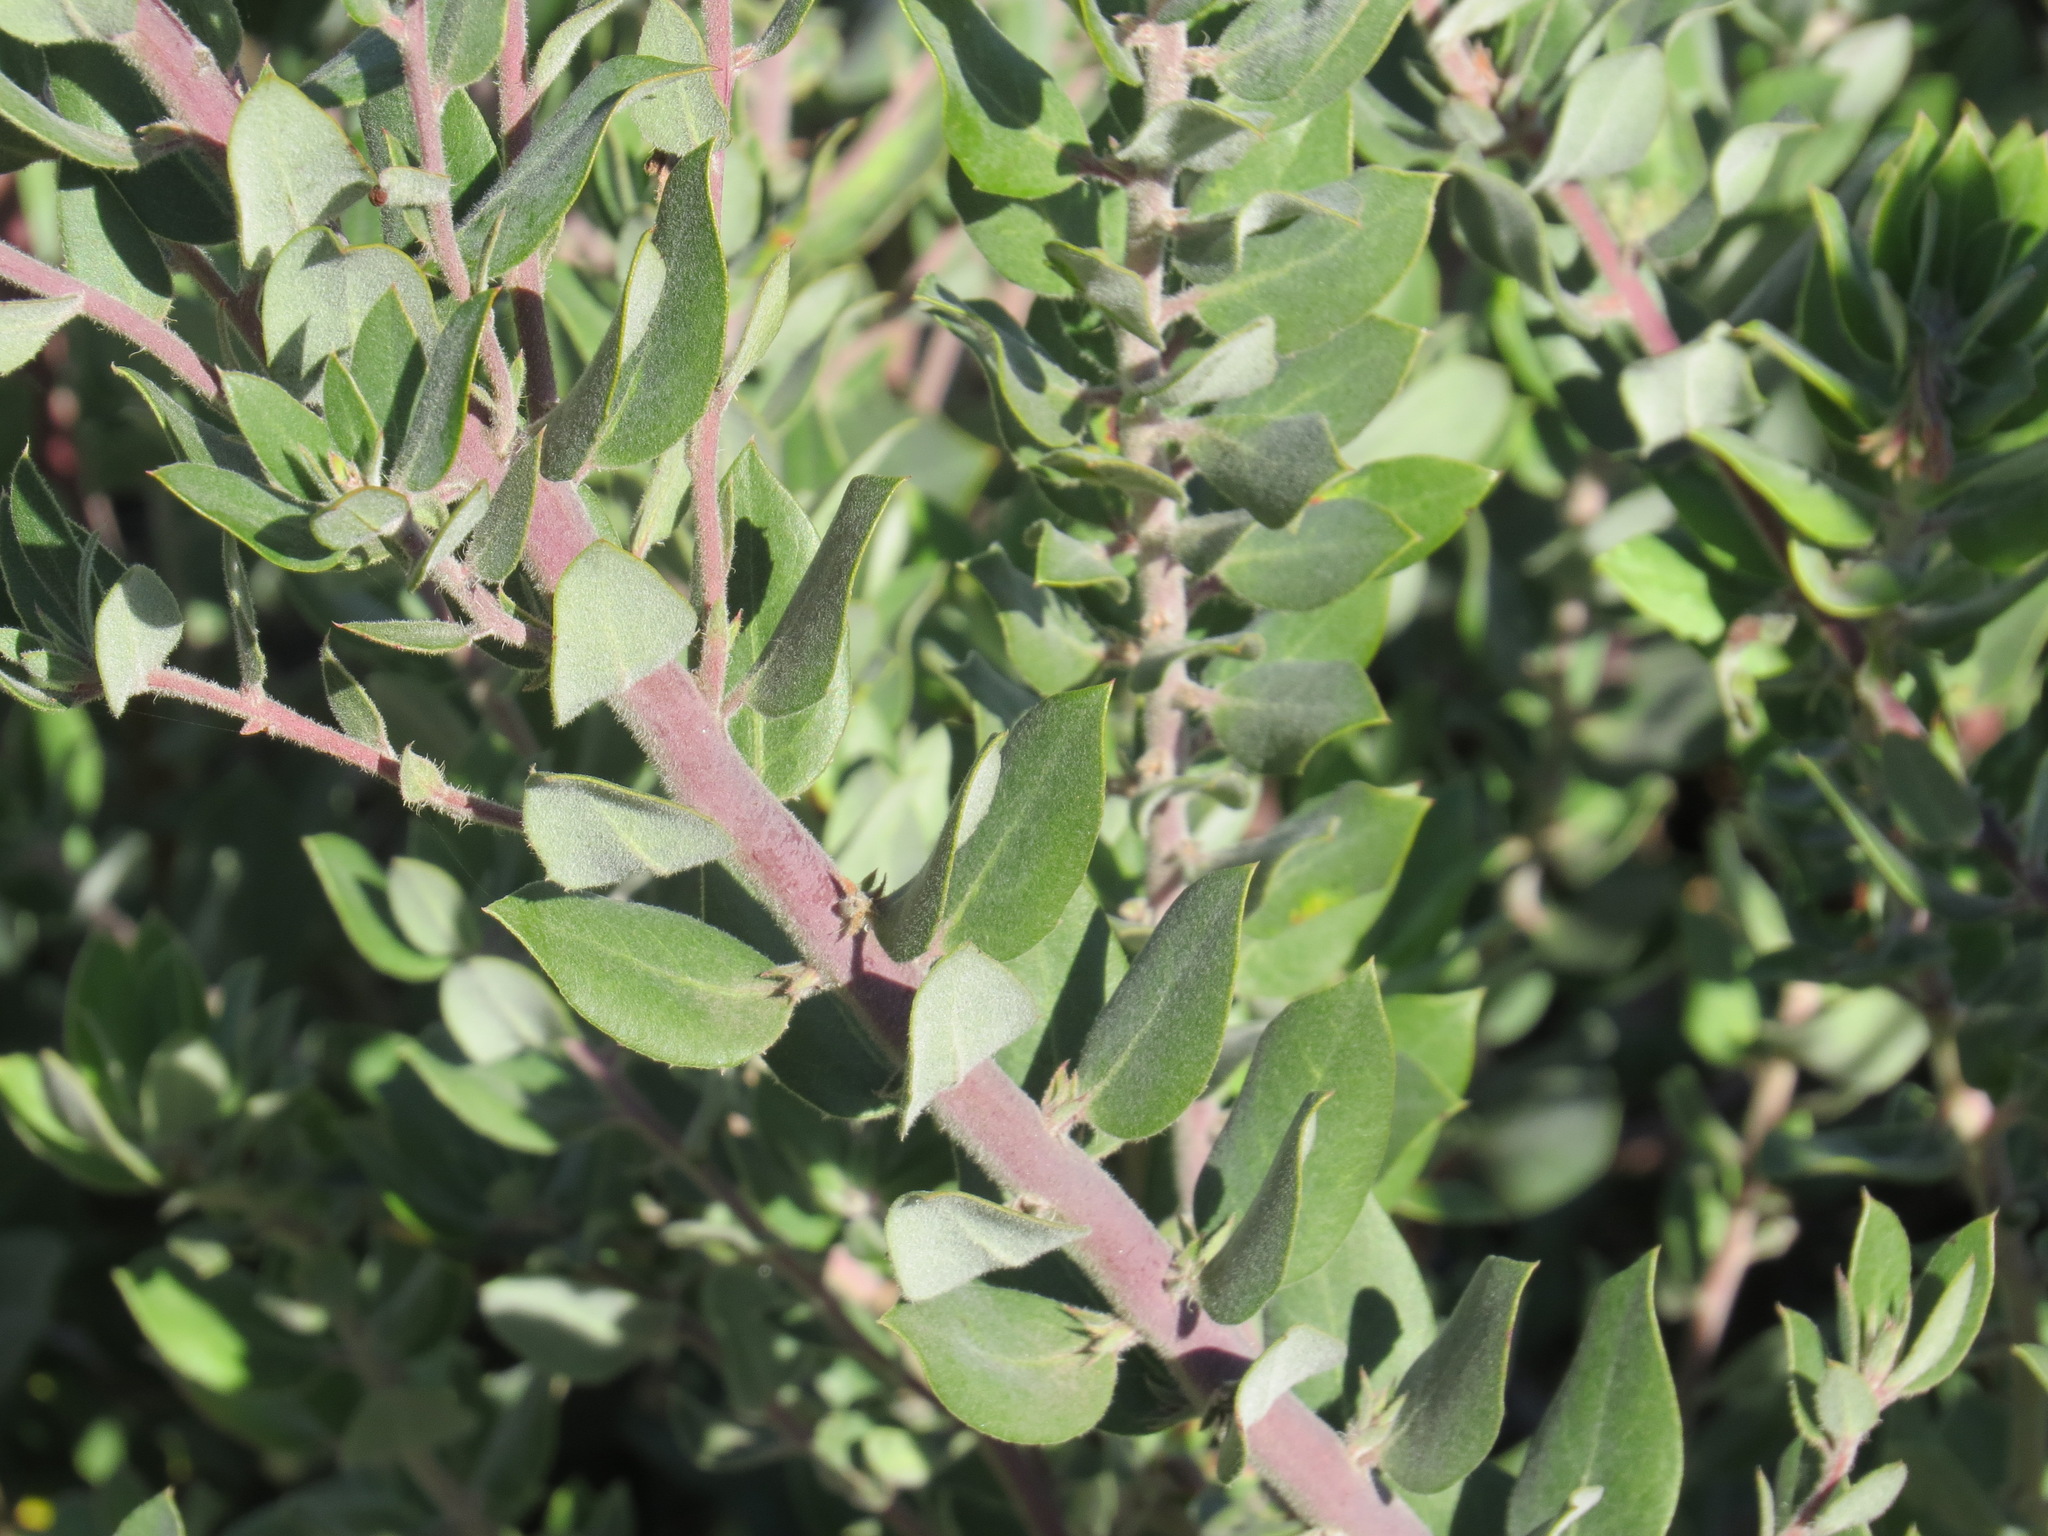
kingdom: Plantae
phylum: Tracheophyta
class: Magnoliopsida
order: Ericales
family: Ericaceae
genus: Arctostaphylos
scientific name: Arctostaphylos crustacea
